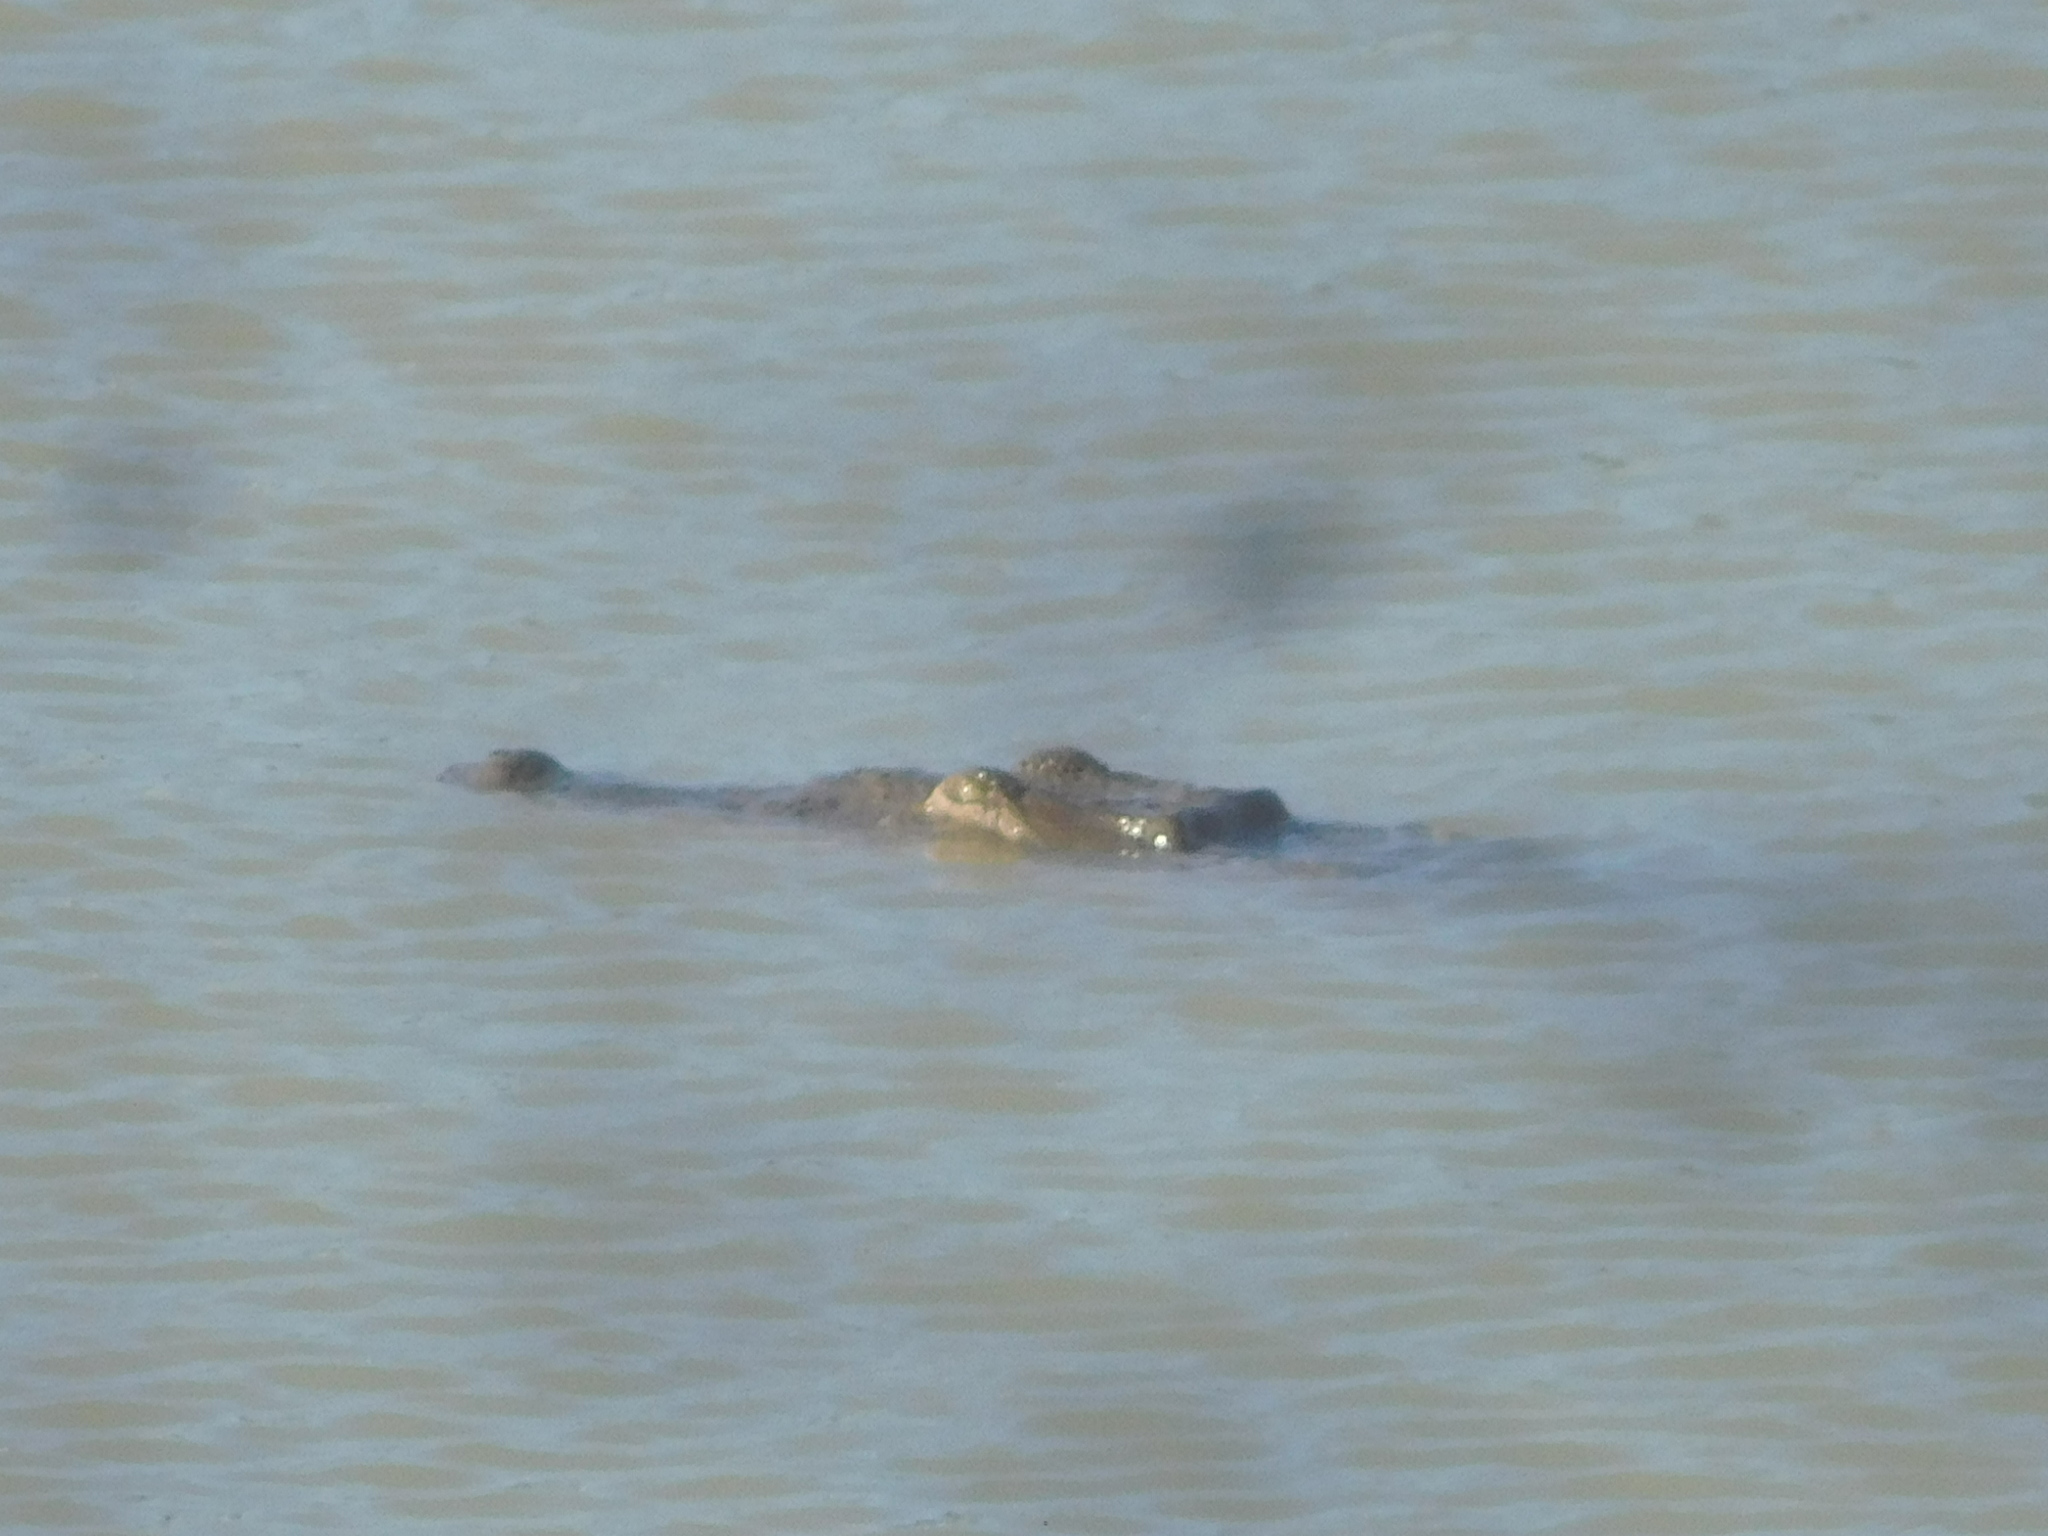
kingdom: Animalia
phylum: Chordata
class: Crocodylia
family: Crocodylidae
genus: Crocodylus
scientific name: Crocodylus acutus
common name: American crocodile
